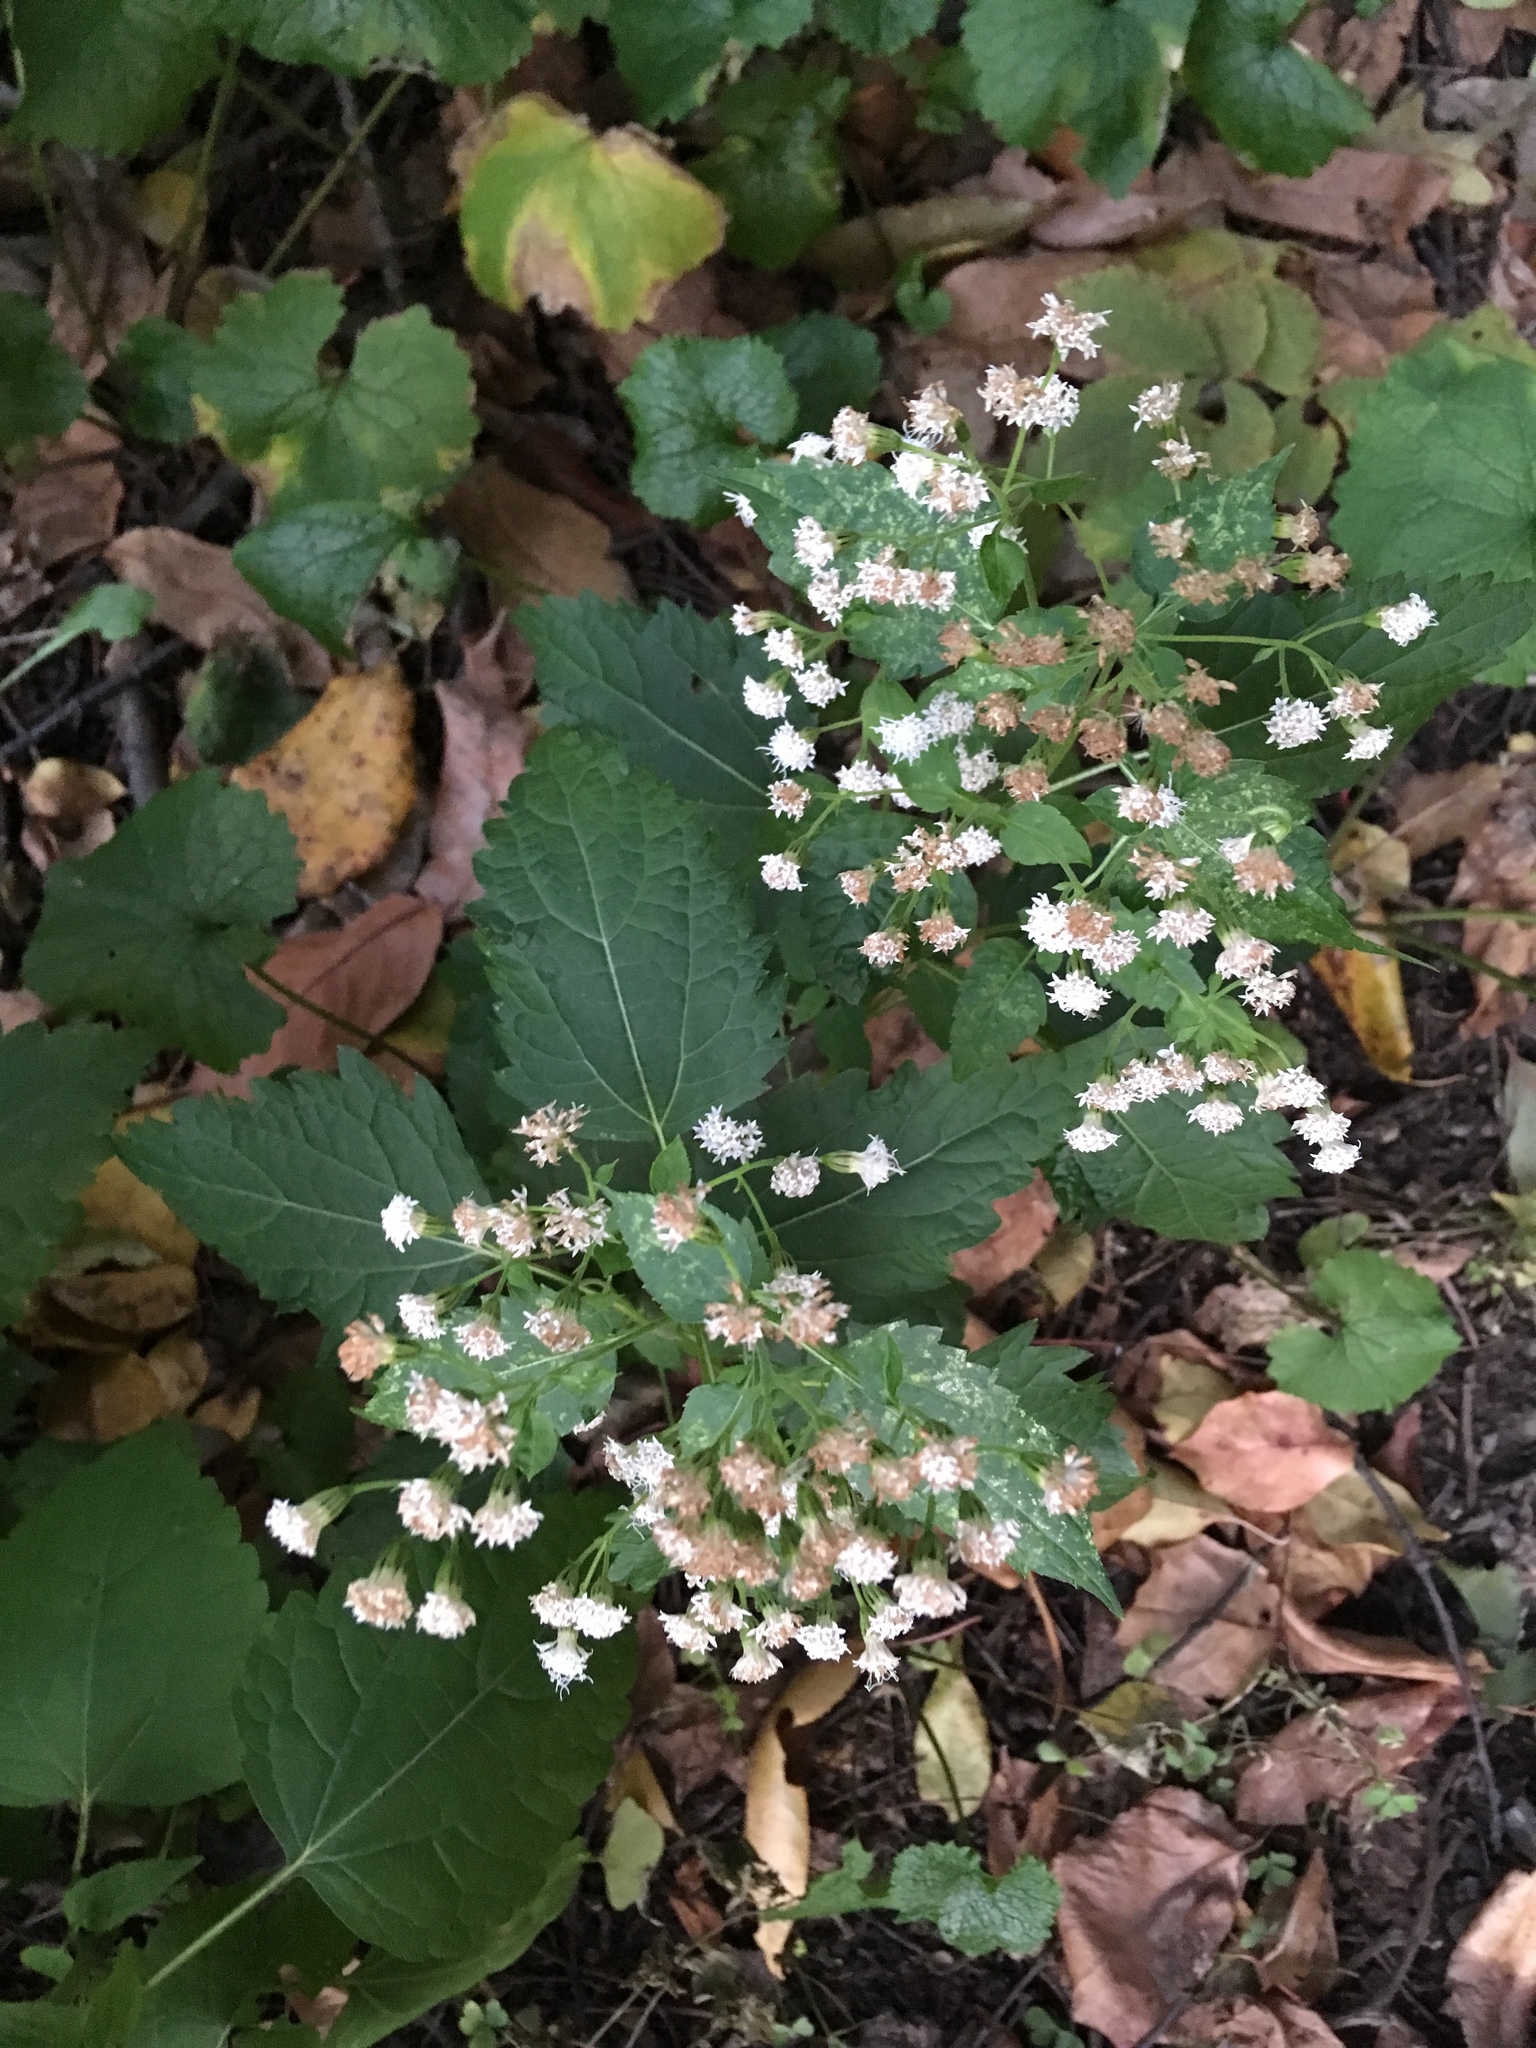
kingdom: Plantae
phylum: Tracheophyta
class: Magnoliopsida
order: Asterales
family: Asteraceae
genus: Ageratina
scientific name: Ageratina altissima
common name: White snakeroot
